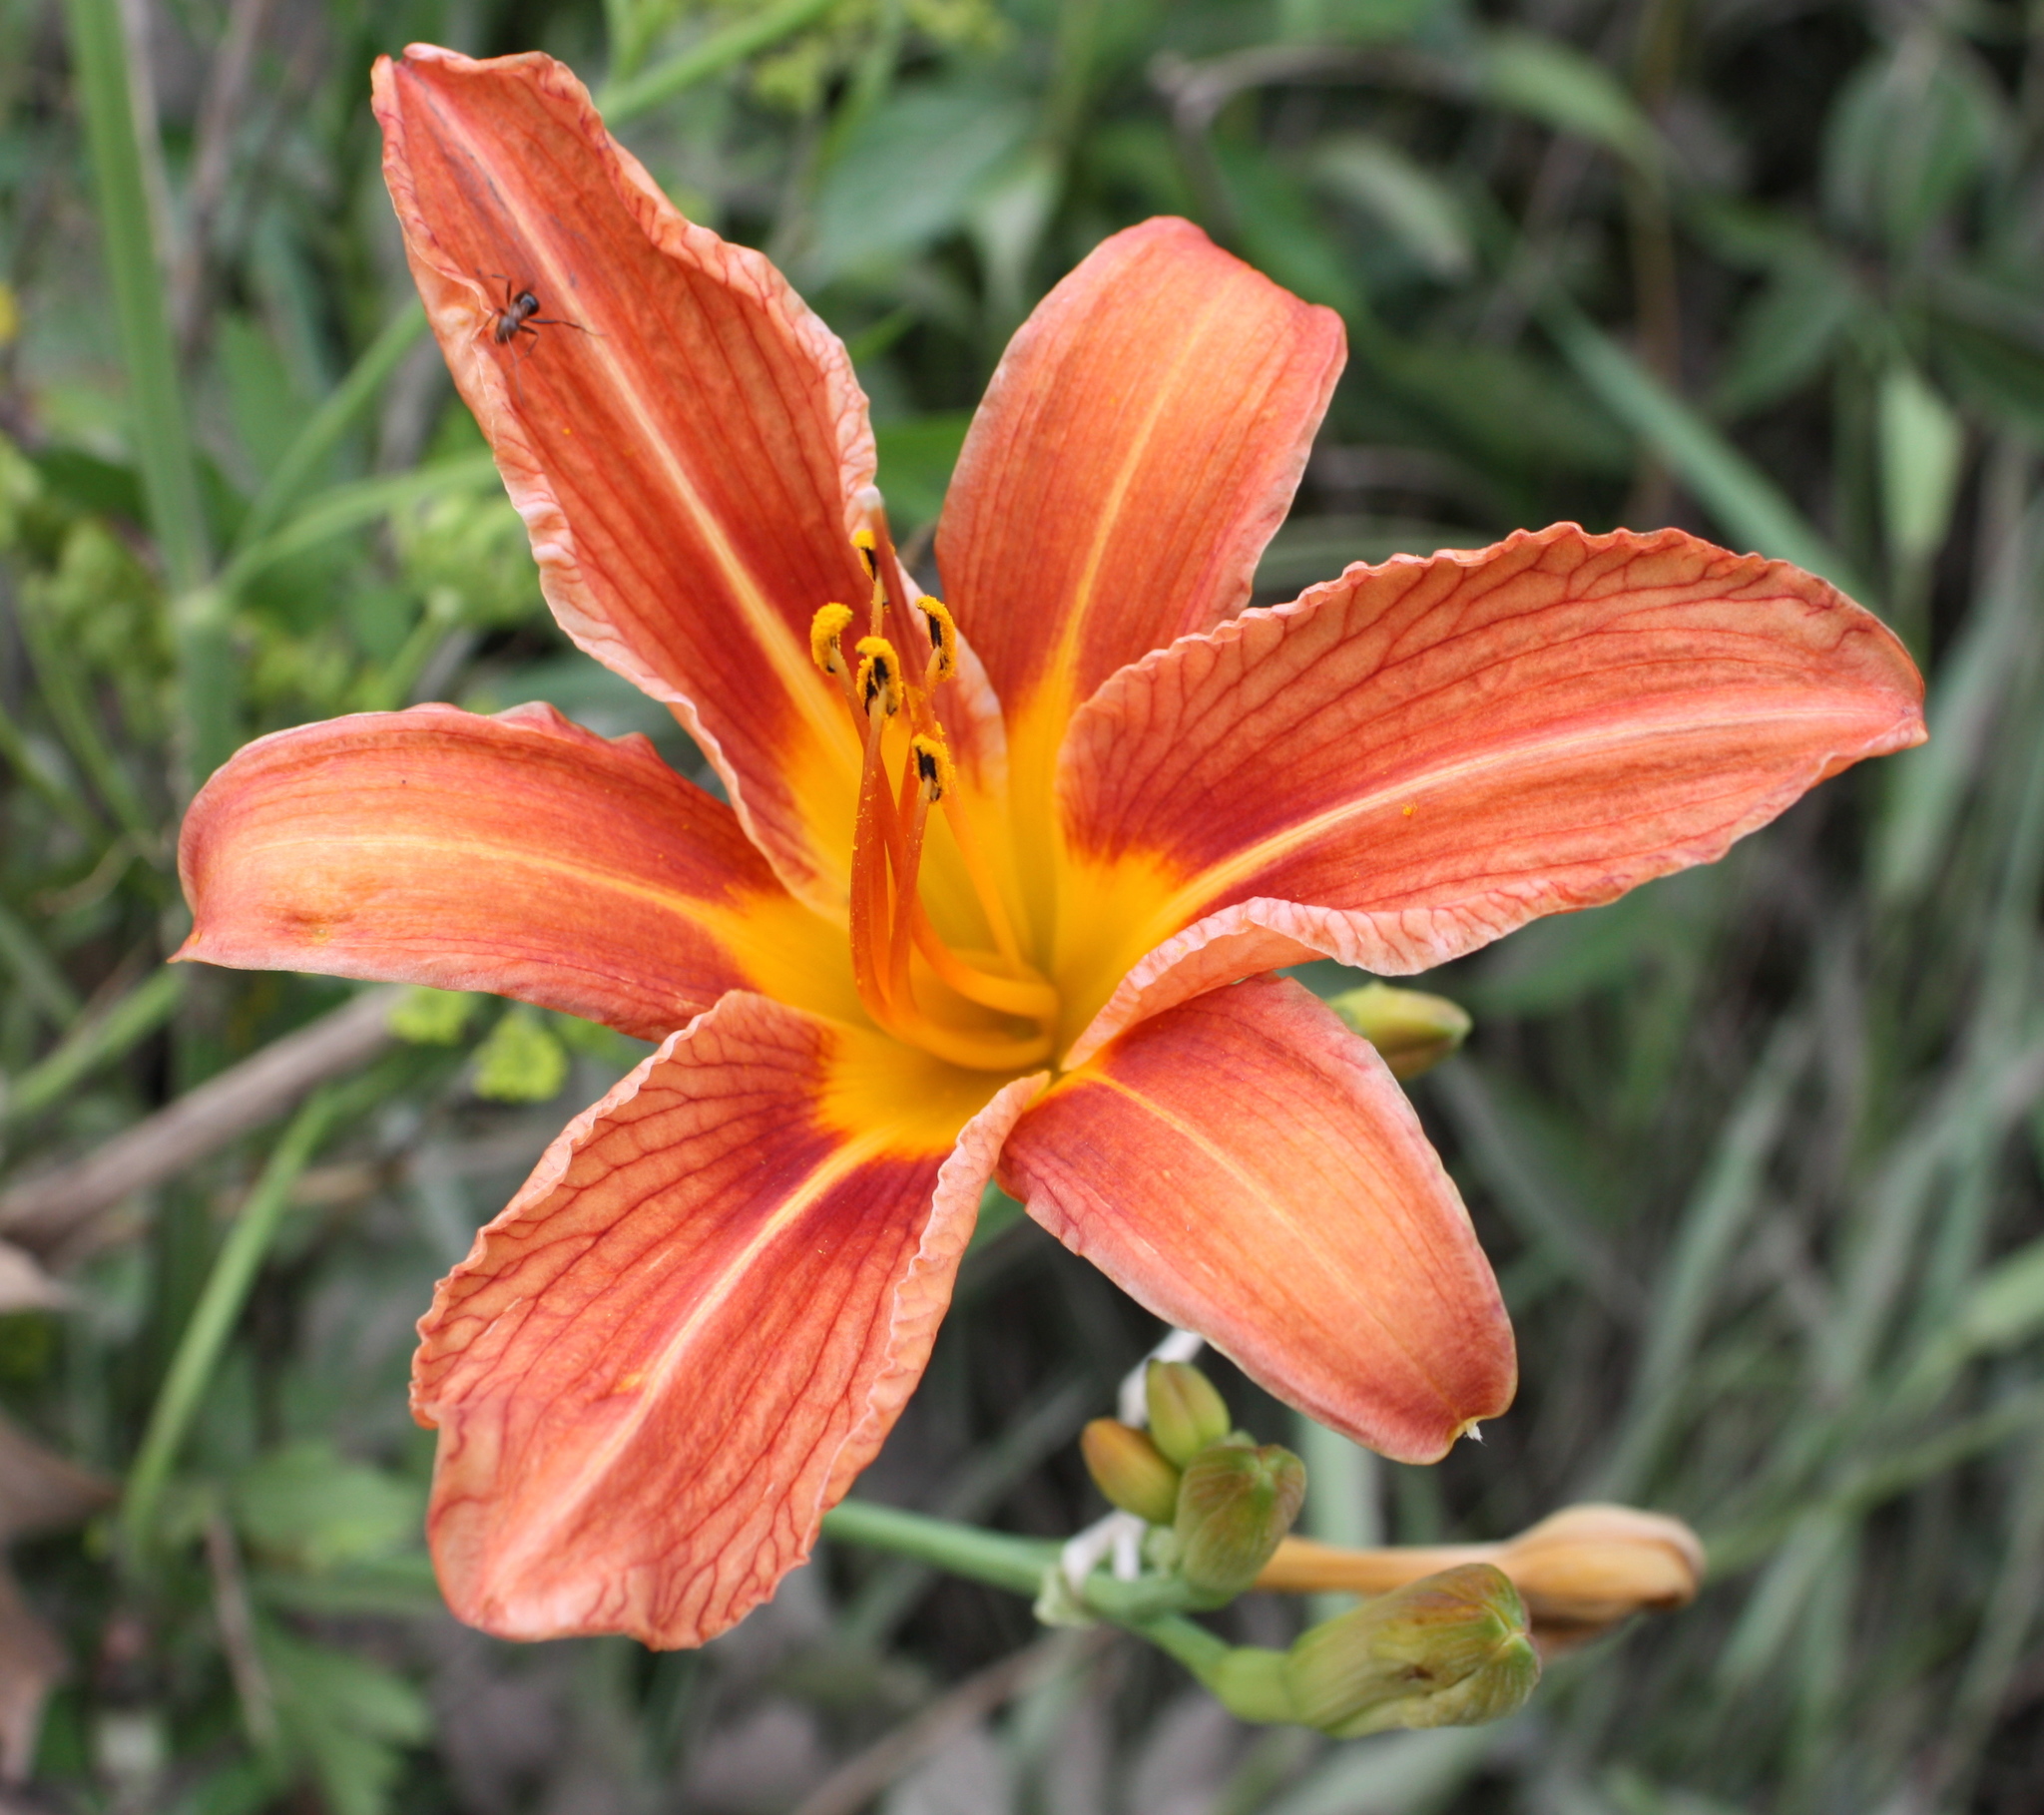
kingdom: Plantae
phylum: Tracheophyta
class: Liliopsida
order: Asparagales
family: Asphodelaceae
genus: Hemerocallis
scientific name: Hemerocallis fulva
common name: Orange day-lily
